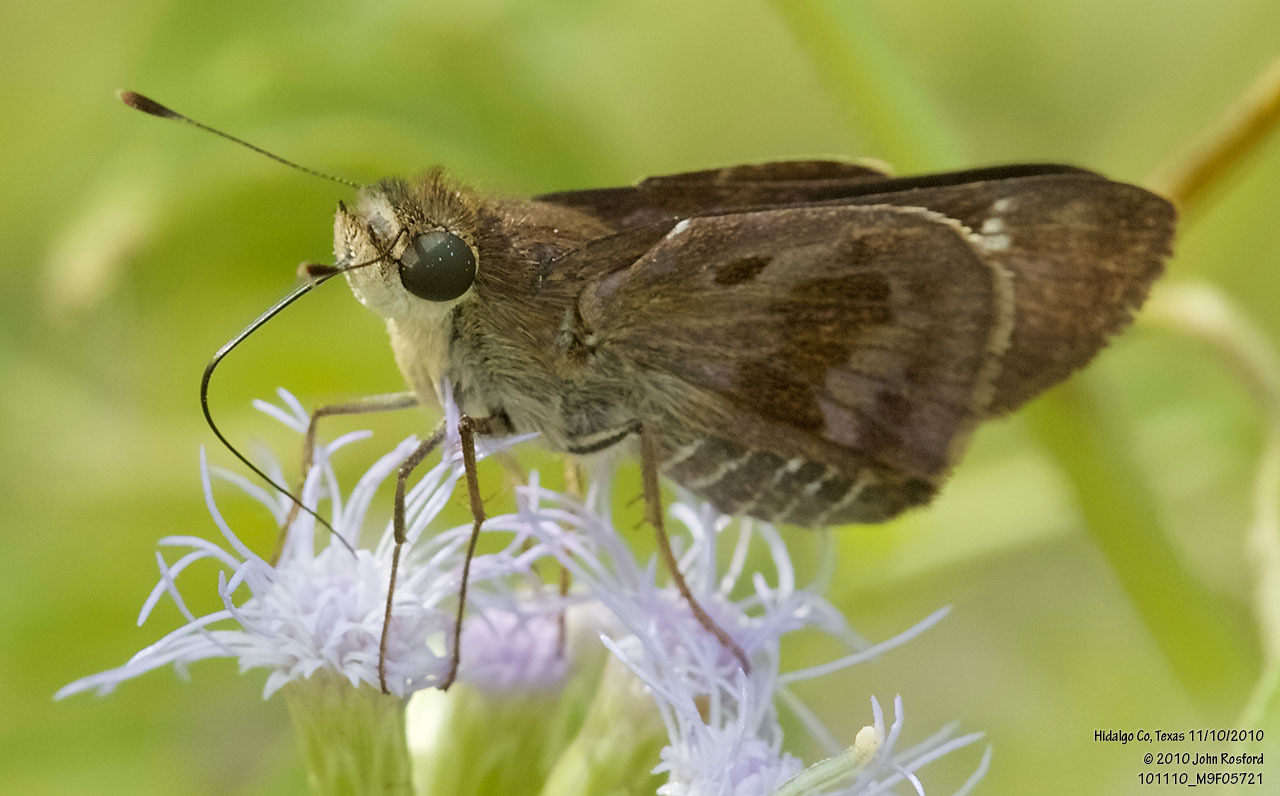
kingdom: Animalia
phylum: Arthropoda
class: Insecta
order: Lepidoptera
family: Hesperiidae
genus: Nyctelius
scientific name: Nyctelius nyctelius
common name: Violet-banded skipper
